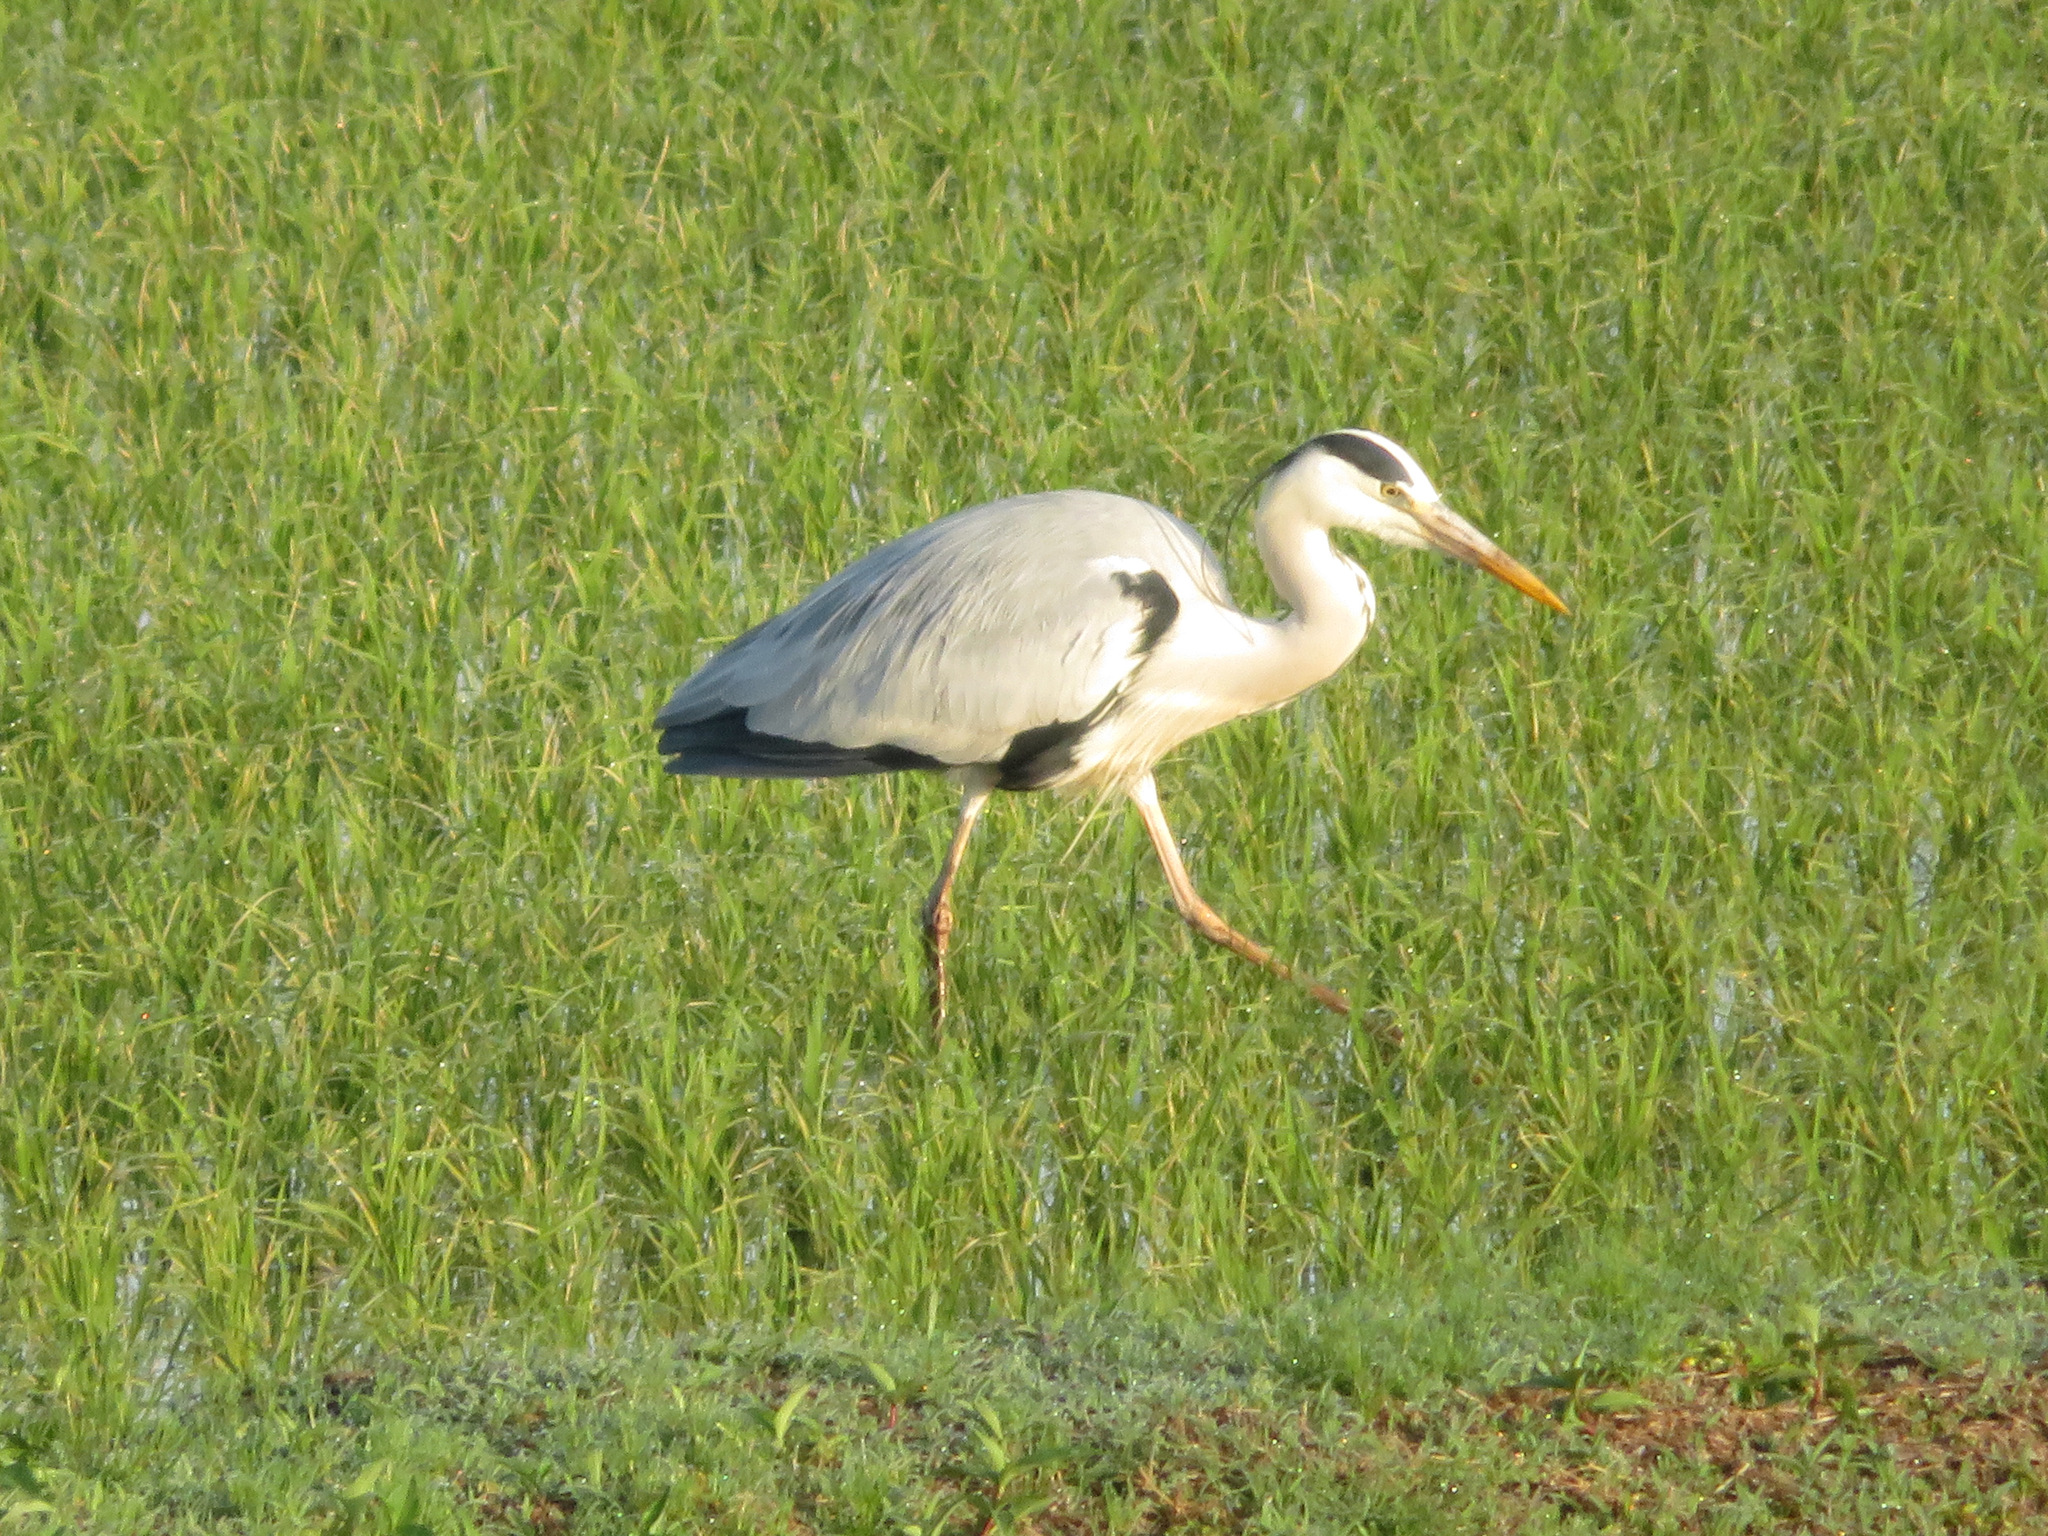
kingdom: Animalia
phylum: Chordata
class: Aves
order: Pelecaniformes
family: Ardeidae
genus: Ardea
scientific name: Ardea cinerea
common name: Grey heron
